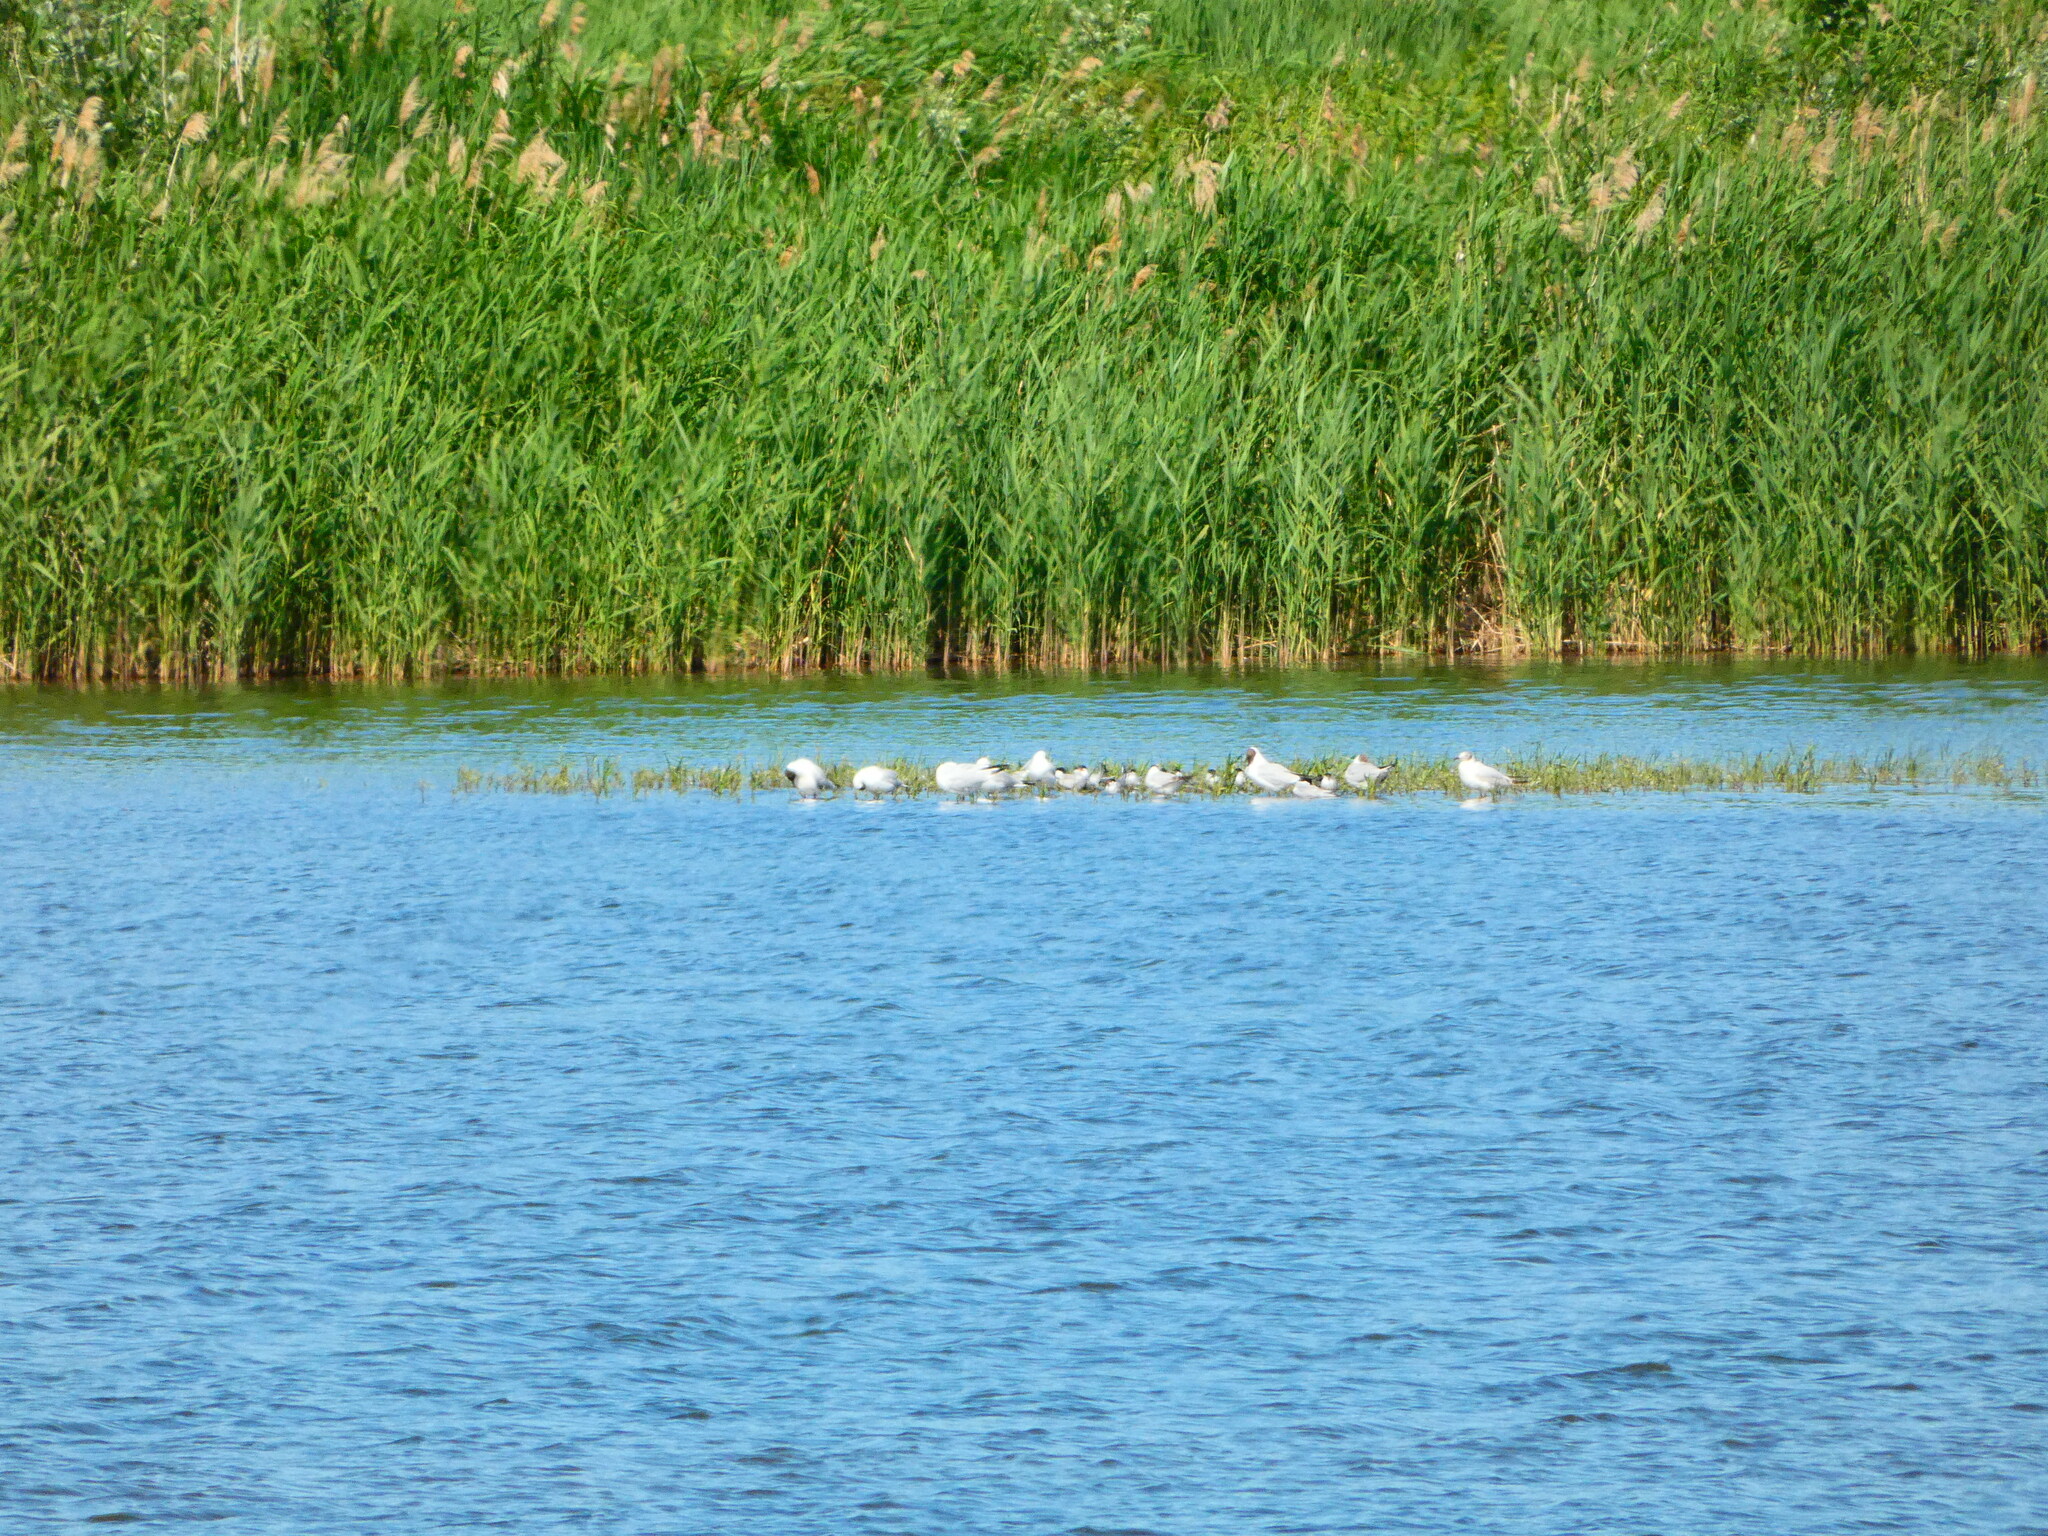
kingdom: Animalia
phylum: Chordata
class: Aves
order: Charadriiformes
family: Laridae
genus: Chroicocephalus
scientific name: Chroicocephalus ridibundus
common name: Black-headed gull
